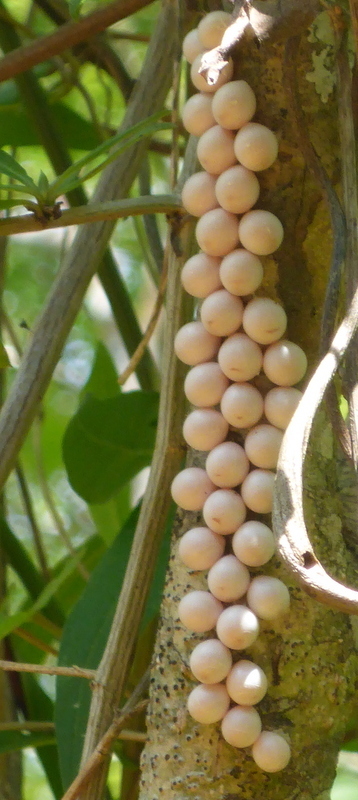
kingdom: Animalia
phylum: Mollusca
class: Gastropoda
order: Architaenioglossa
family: Ampullariidae
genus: Pomacea
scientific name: Pomacea paludosa
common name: Florida applesnail
